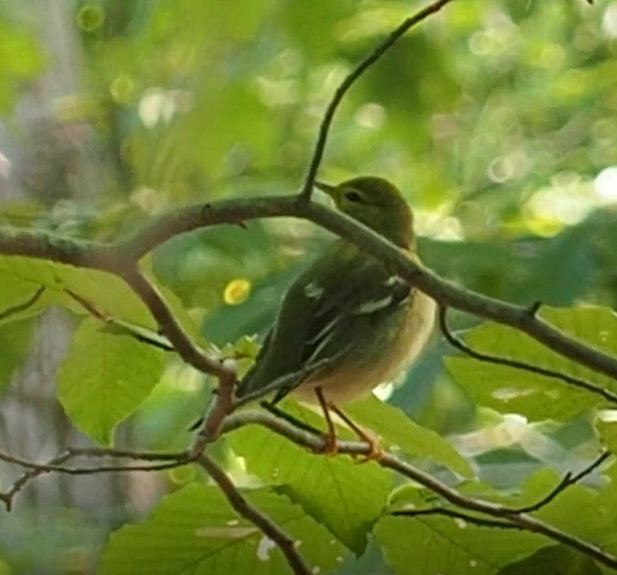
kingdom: Animalia
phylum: Chordata
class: Aves
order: Passeriformes
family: Parulidae
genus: Setophaga
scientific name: Setophaga striata
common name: Blackpoll warbler
